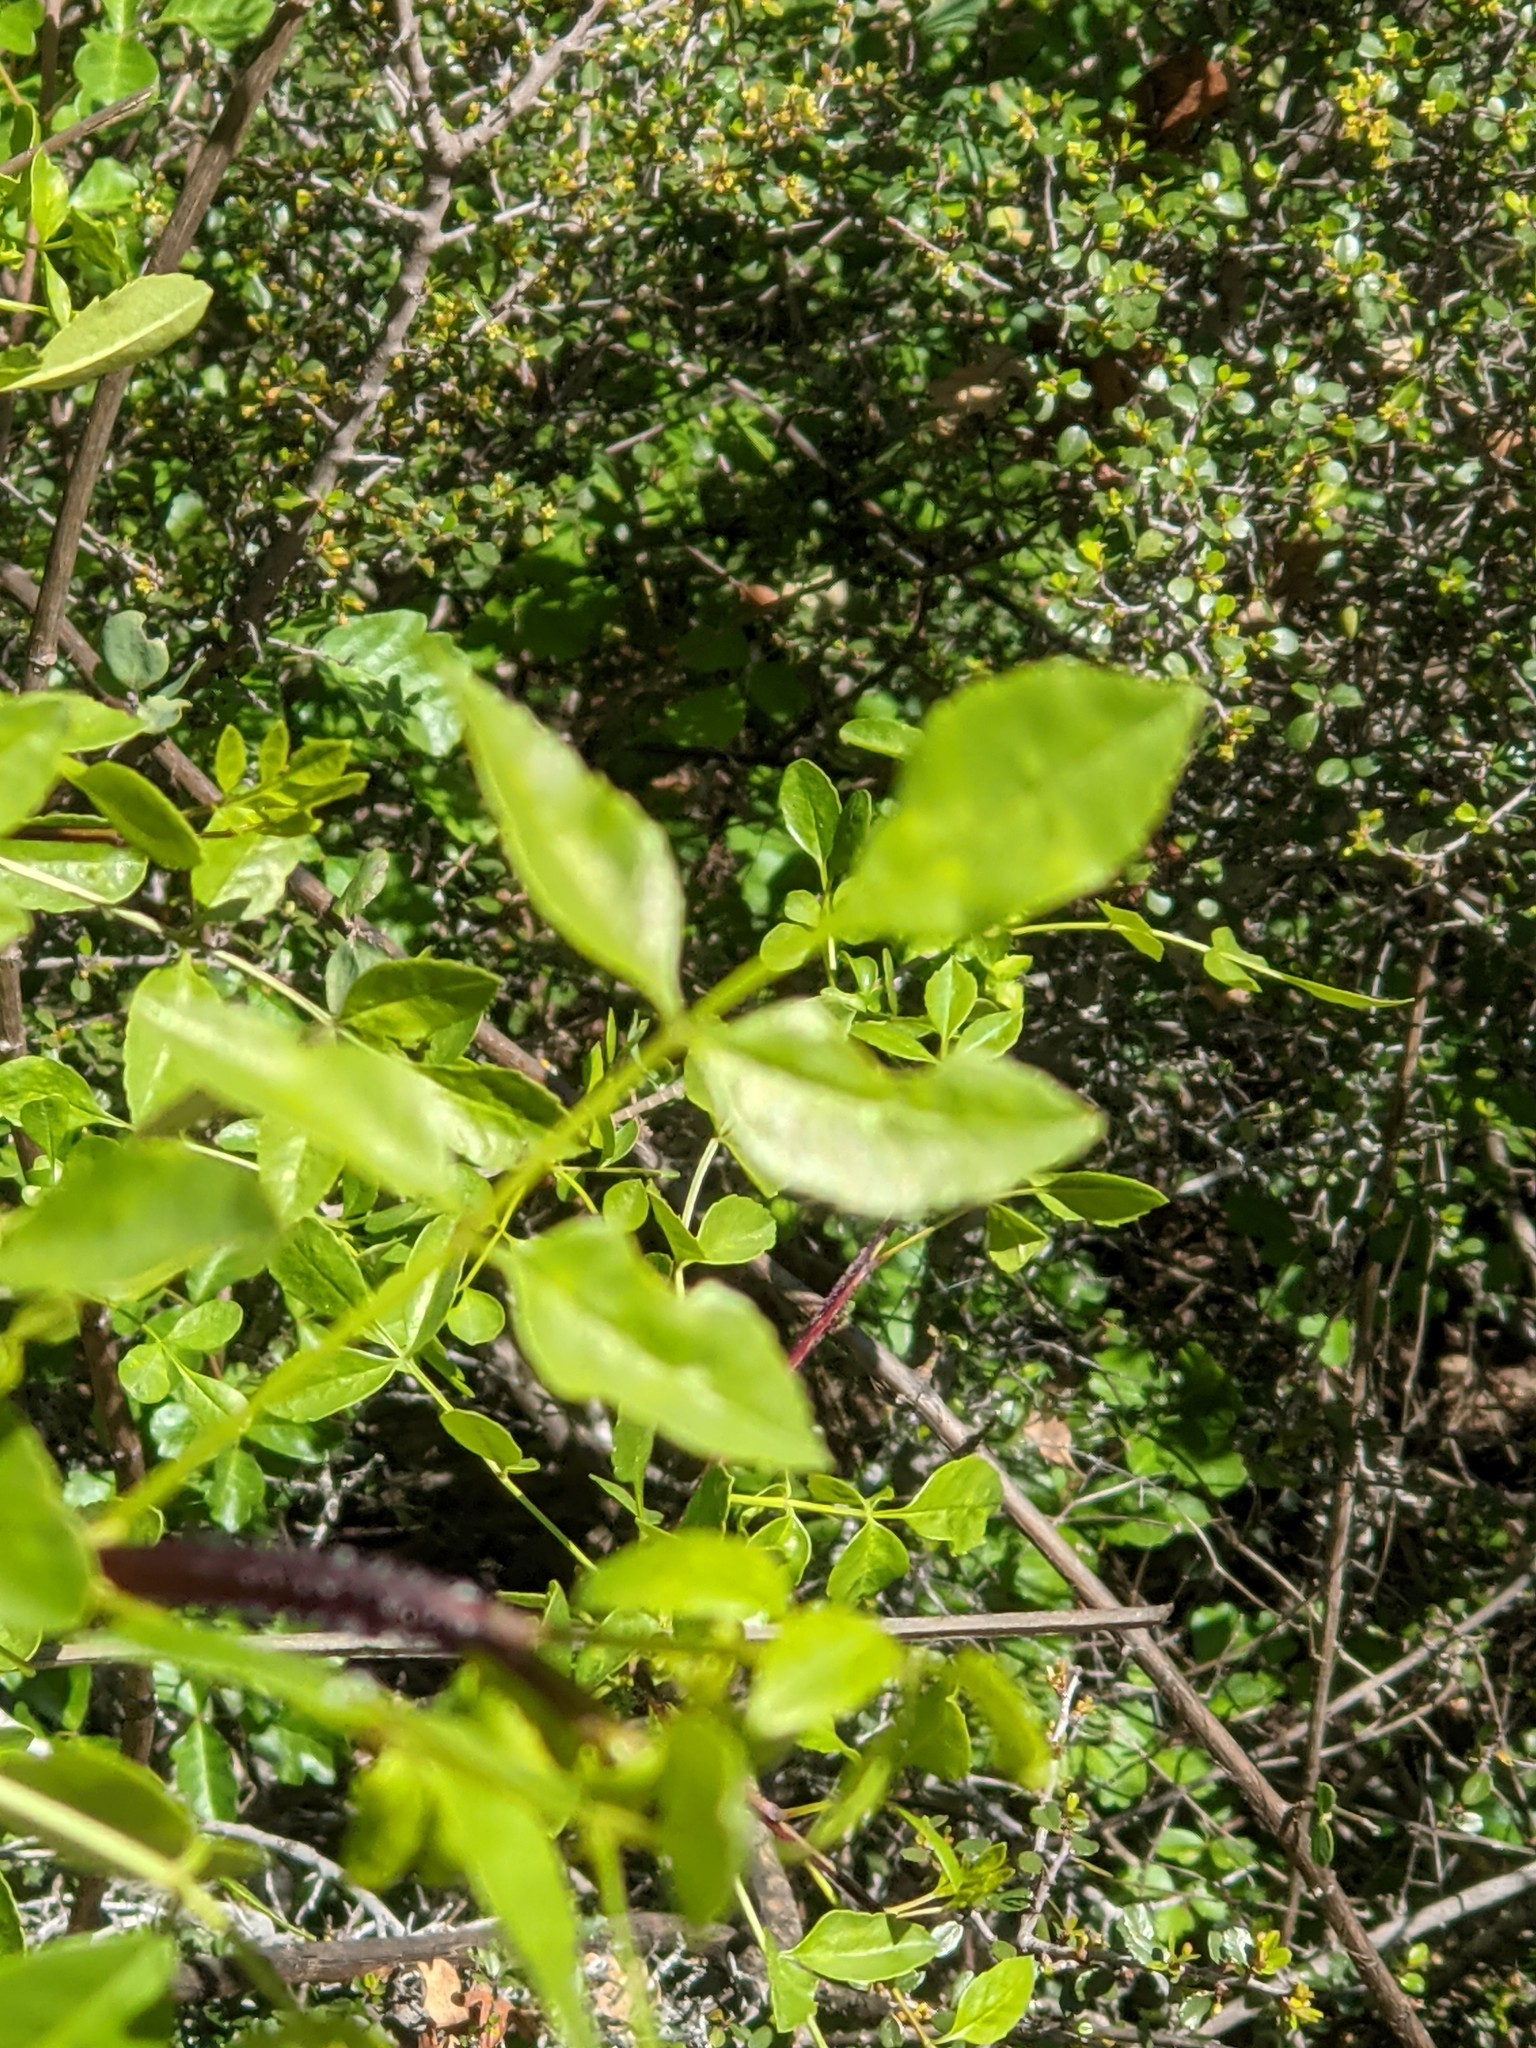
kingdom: Plantae
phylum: Tracheophyta
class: Magnoliopsida
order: Lamiales
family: Oleaceae
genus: Fraxinus
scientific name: Fraxinus dipetala
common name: California ash
